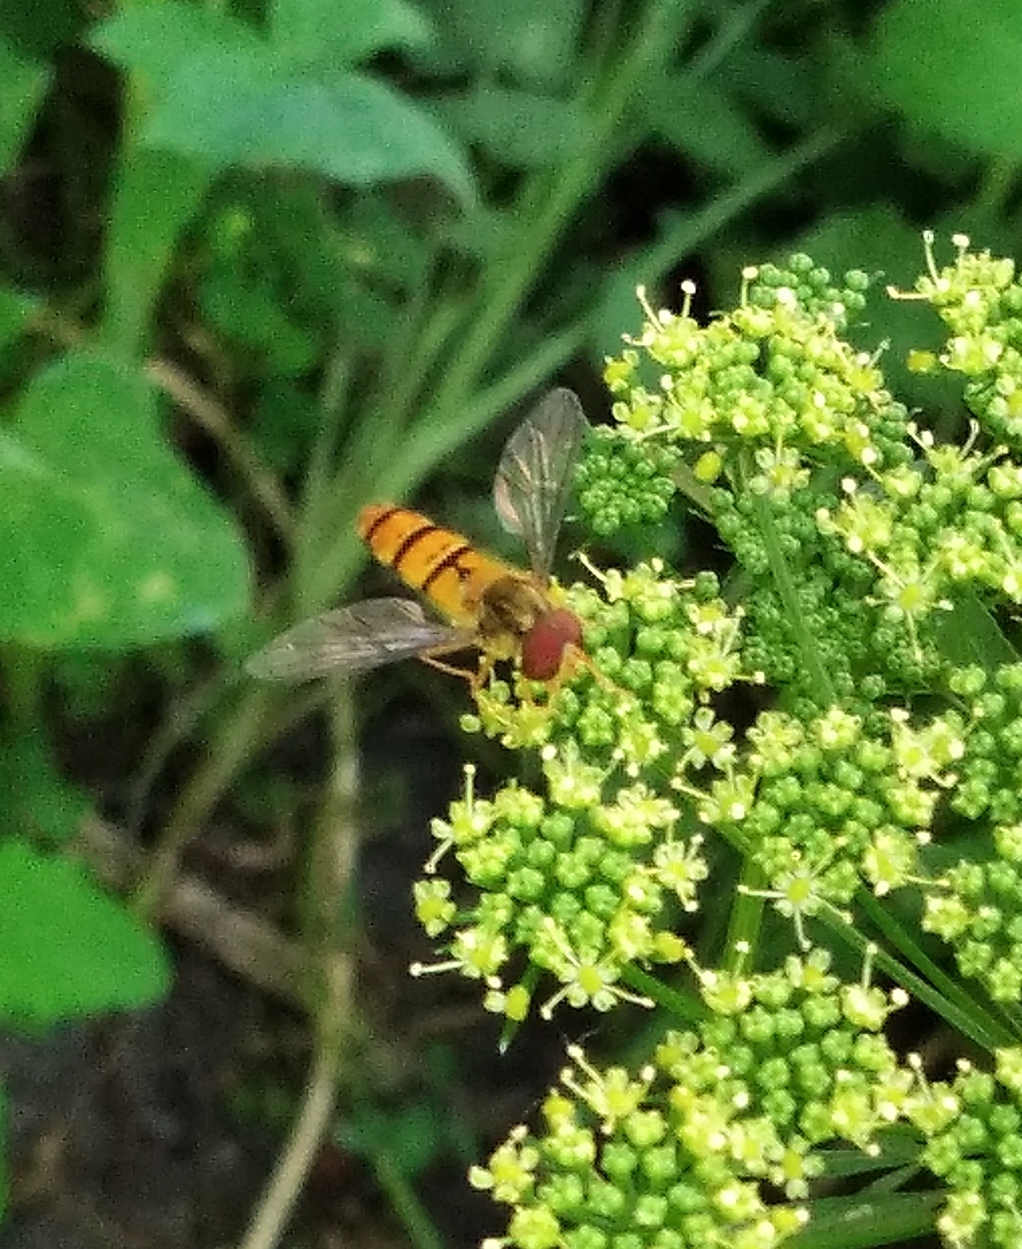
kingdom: Animalia
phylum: Arthropoda
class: Insecta
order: Diptera
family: Syrphidae
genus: Episyrphus
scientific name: Episyrphus balteatus
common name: Marmalade hoverfly
